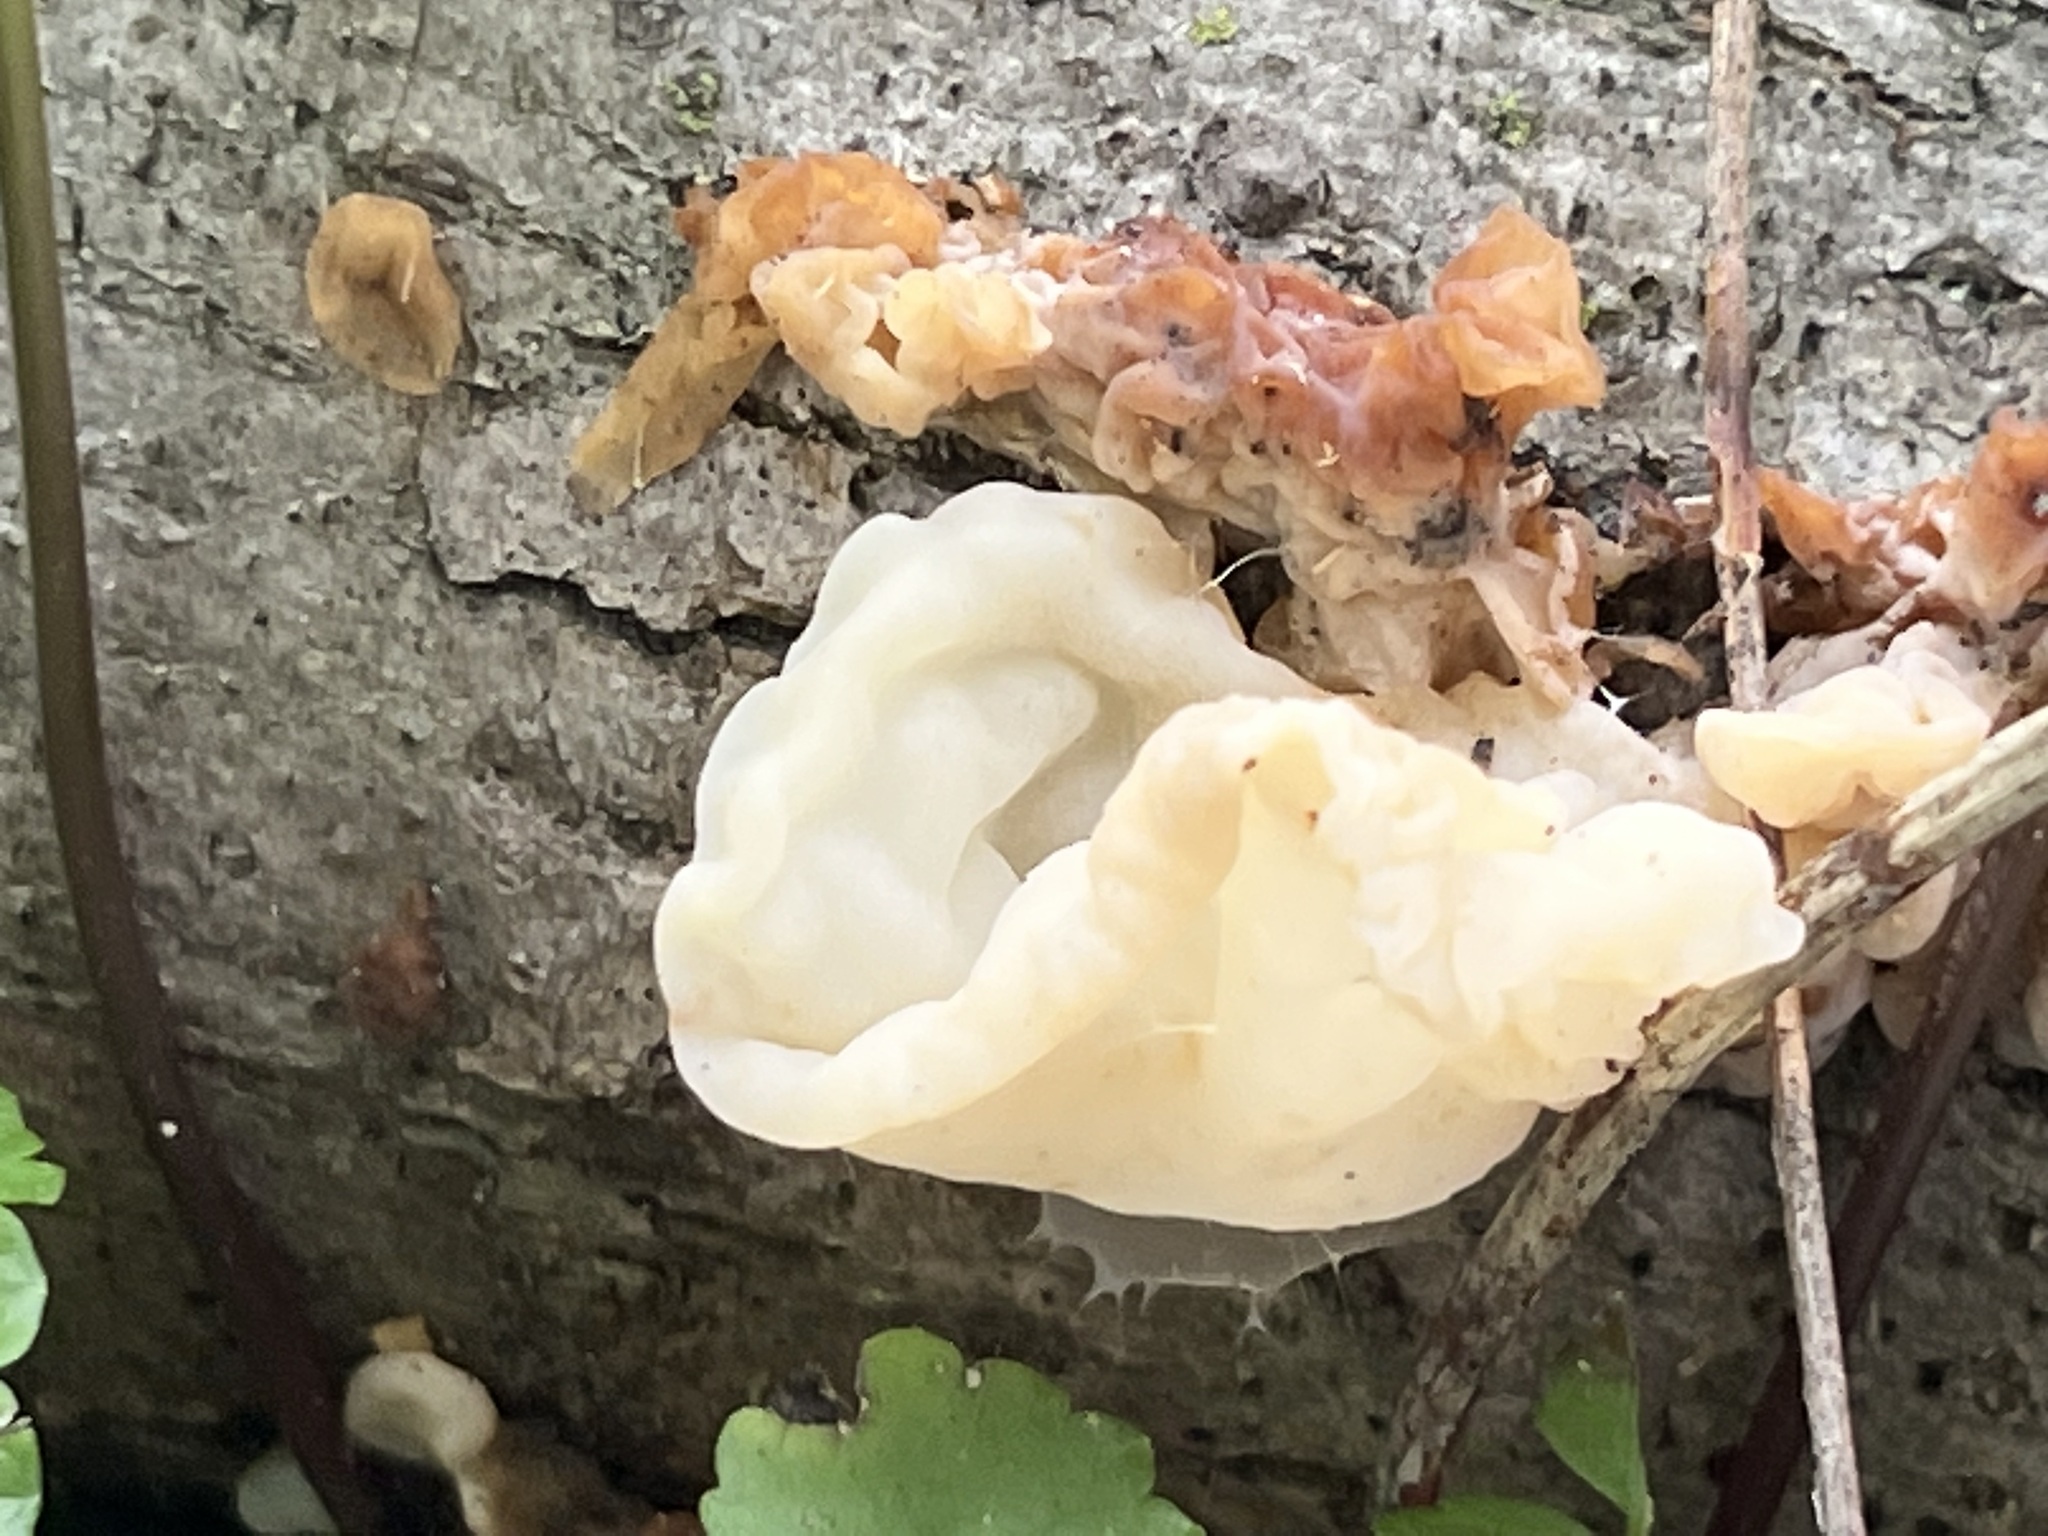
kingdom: Fungi
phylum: Basidiomycota
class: Agaricomycetes
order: Auriculariales
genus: Ductifera
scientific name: Ductifera pululahuana
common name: White jelly fungus
